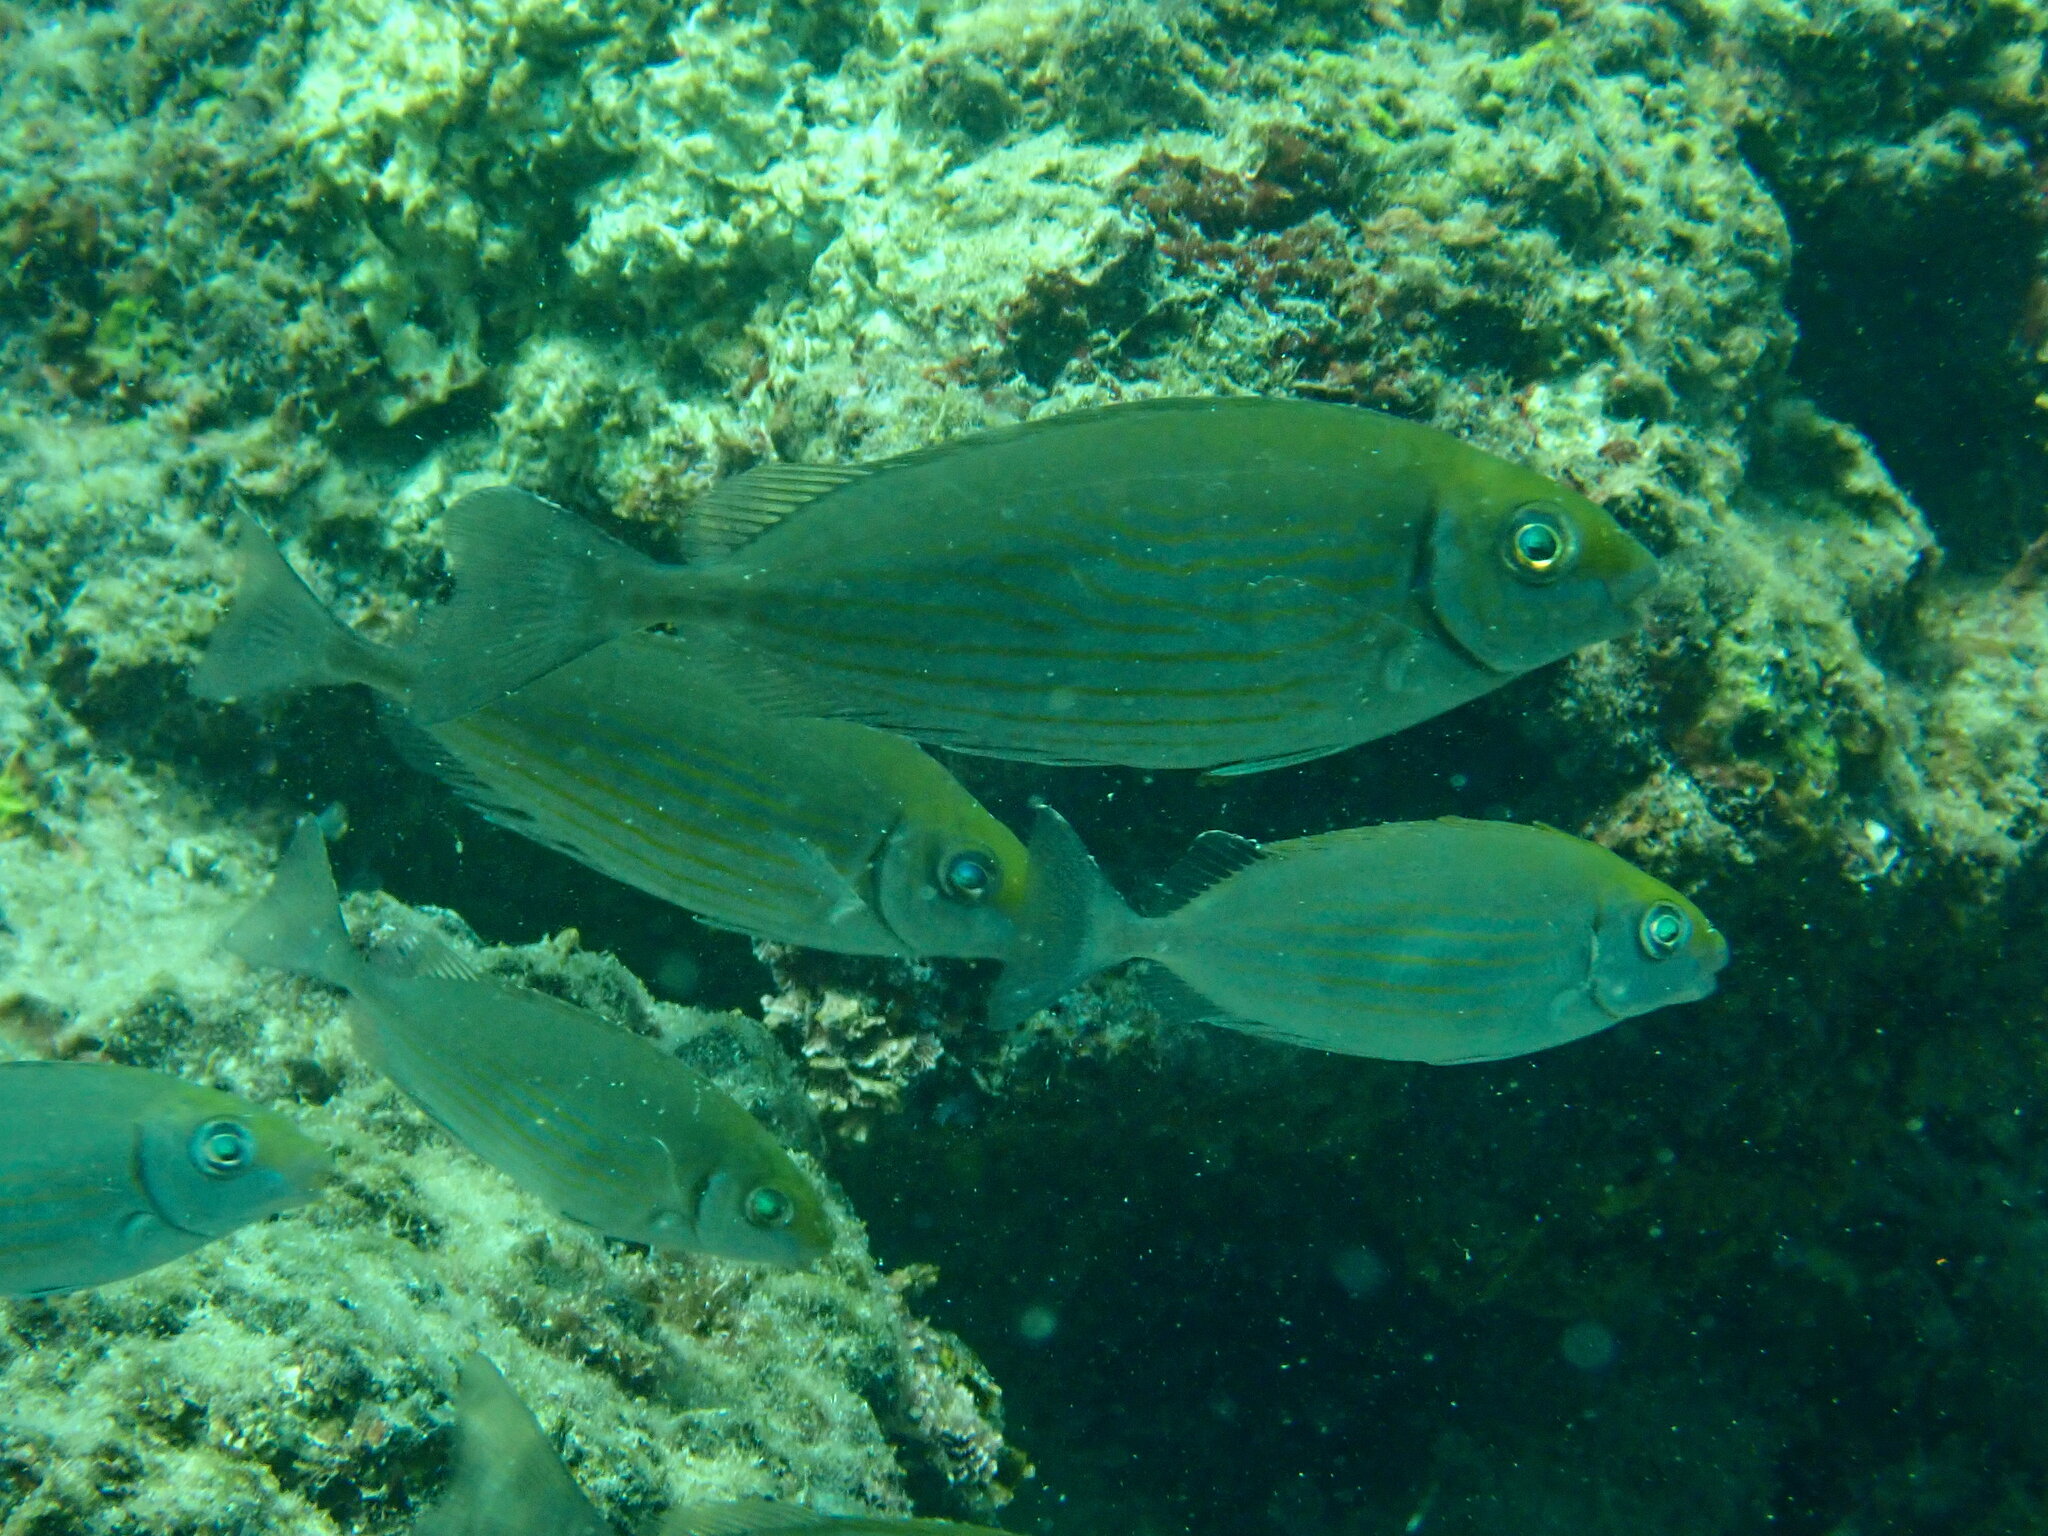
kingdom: Animalia
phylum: Chordata
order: Perciformes
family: Siganidae
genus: Siganus
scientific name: Siganus rivulatus
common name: Marbled spinefoot
